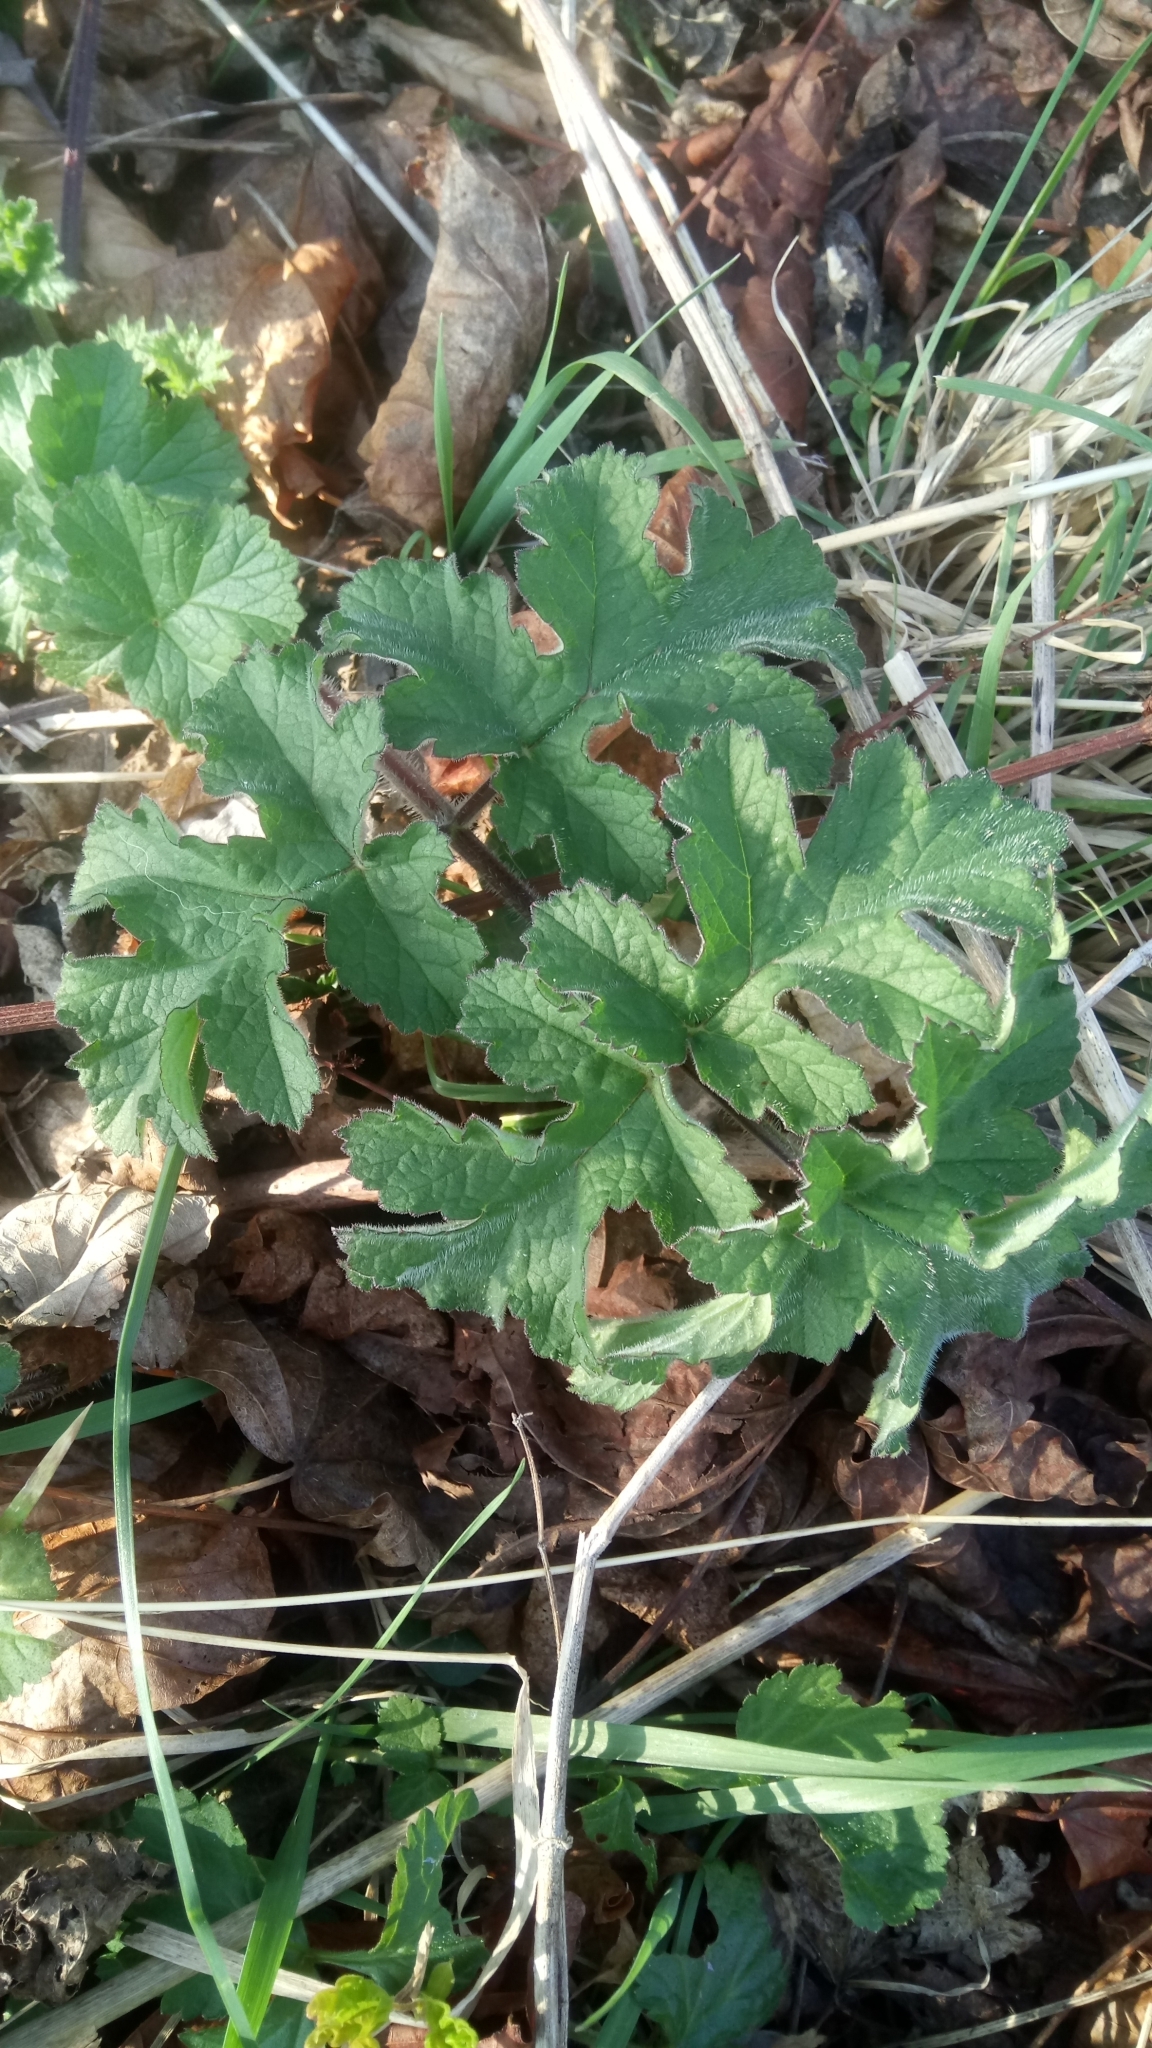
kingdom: Plantae
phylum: Tracheophyta
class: Magnoliopsida
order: Apiales
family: Apiaceae
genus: Heracleum
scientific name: Heracleum sphondylium
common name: Hogweed
